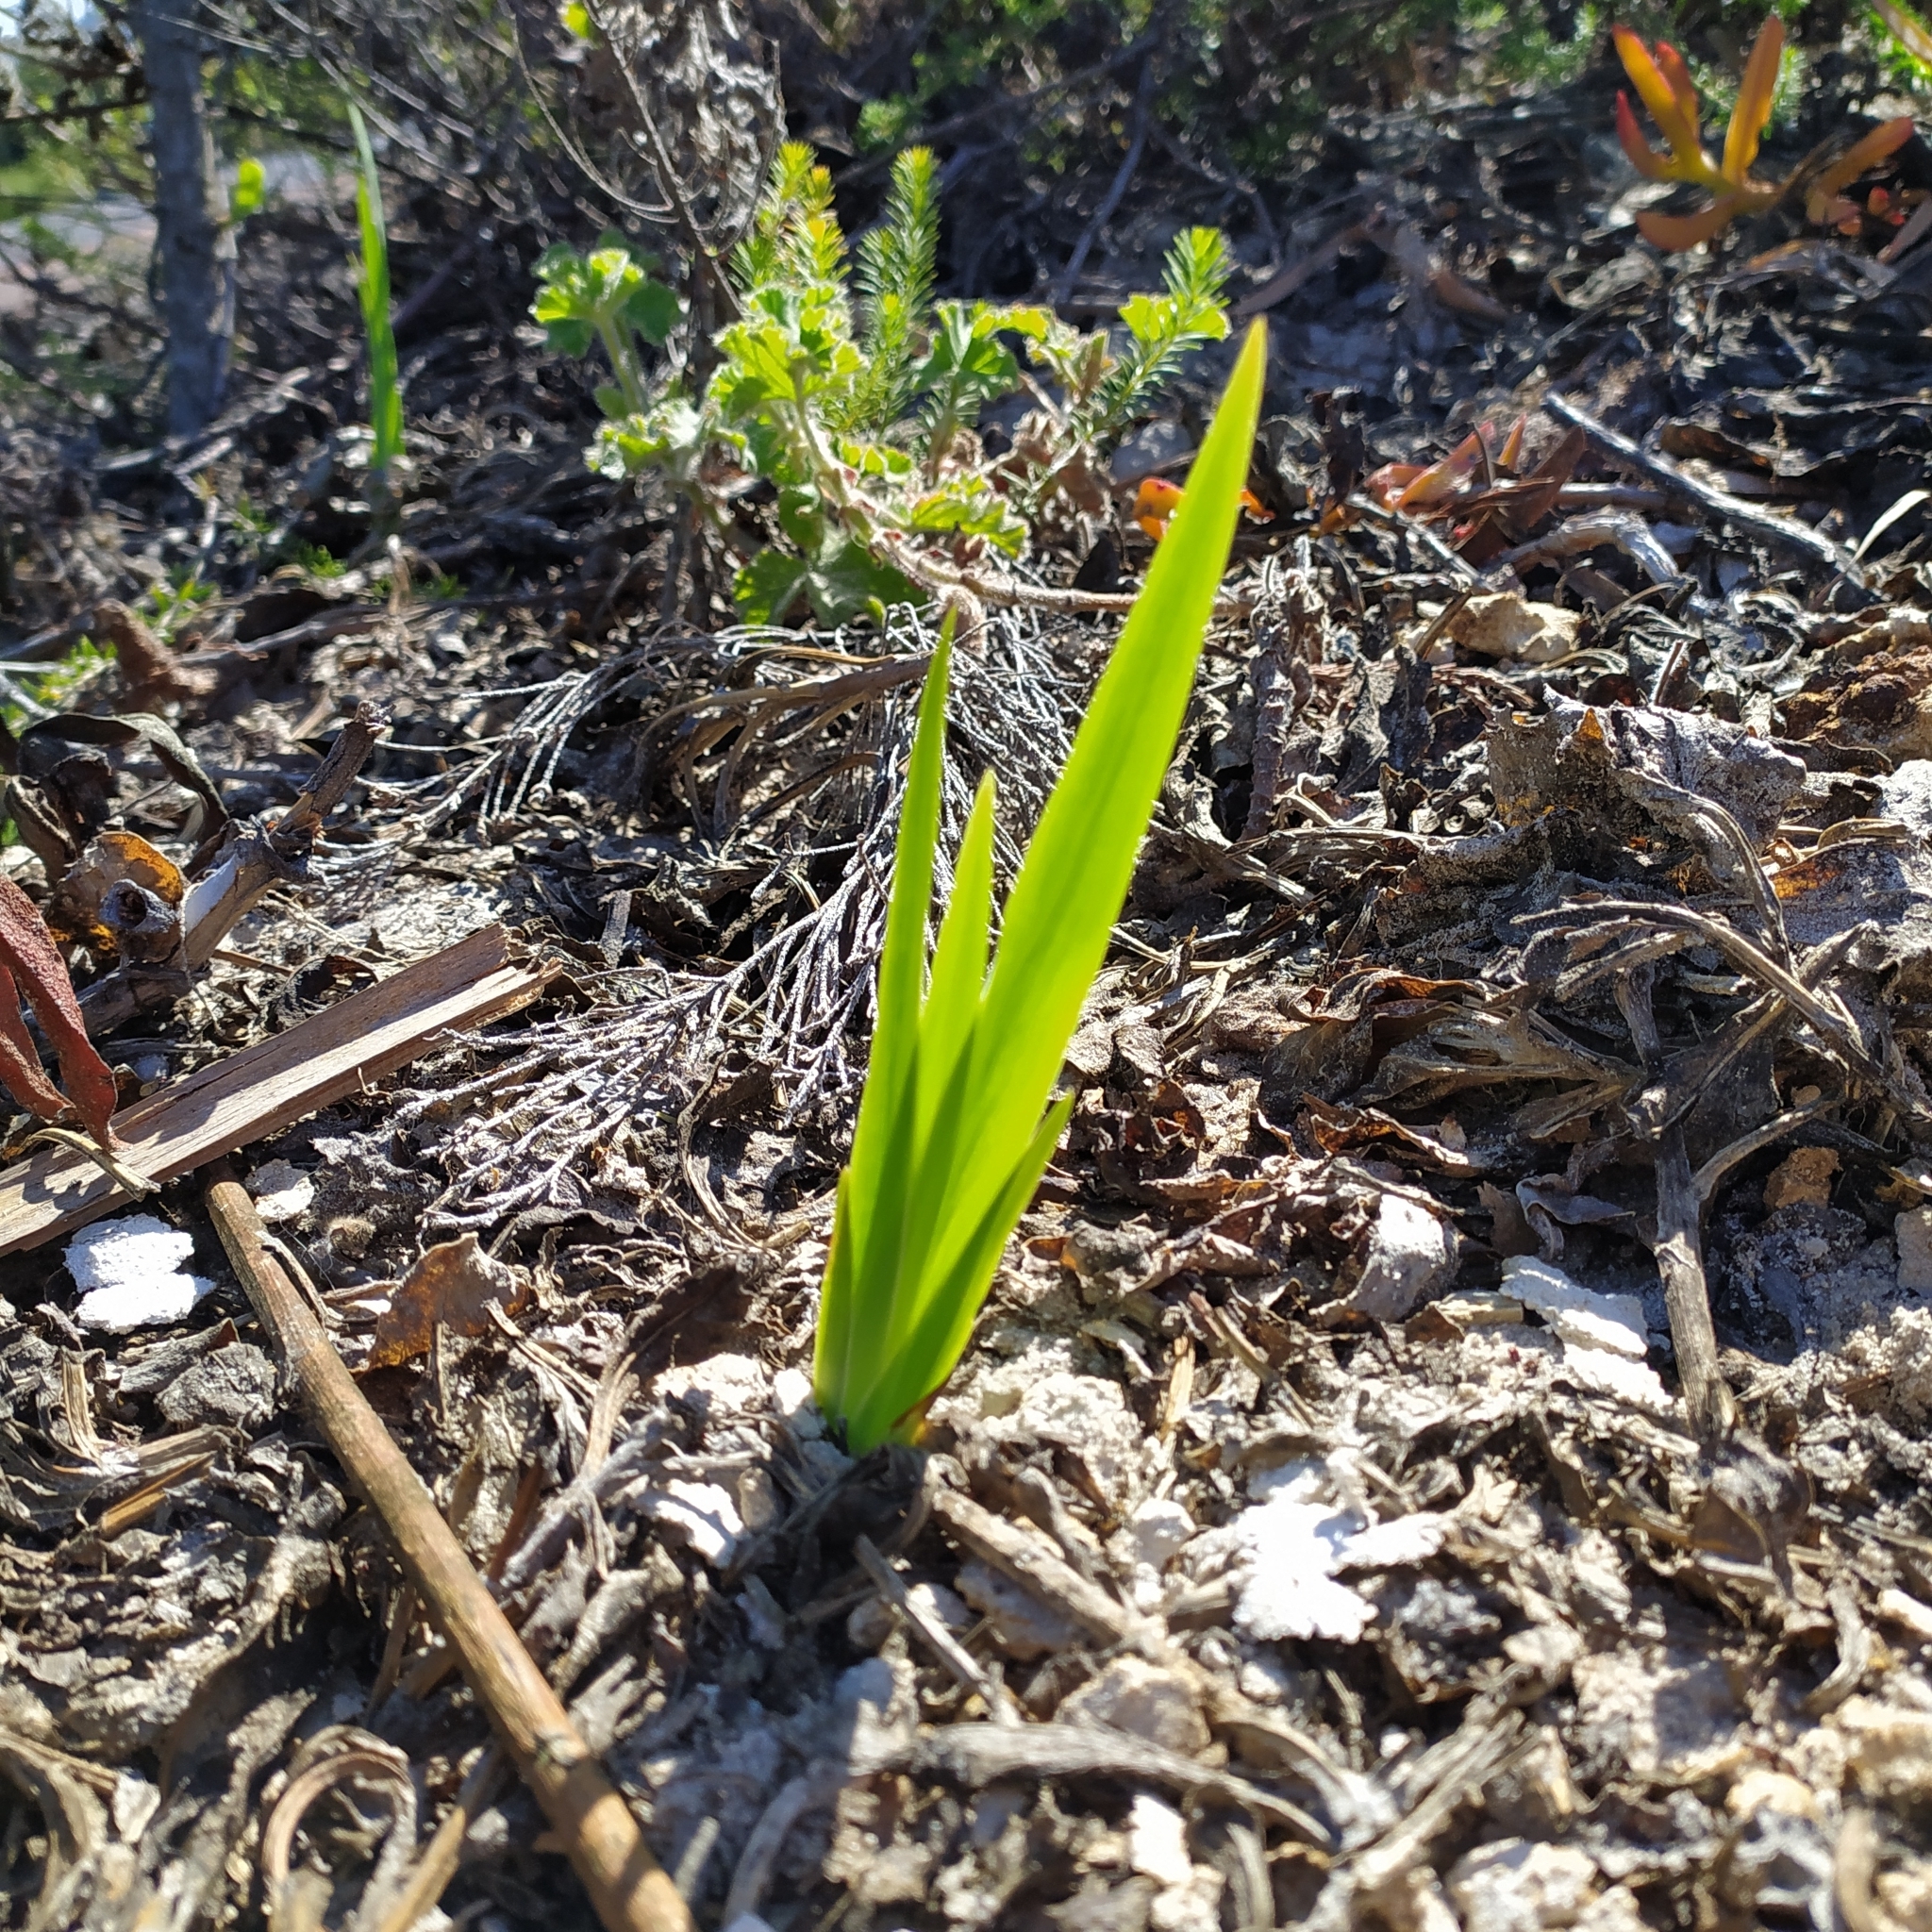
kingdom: Plantae
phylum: Tracheophyta
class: Liliopsida
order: Asparagales
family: Iridaceae
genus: Chasmanthe
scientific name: Chasmanthe aethiopica
